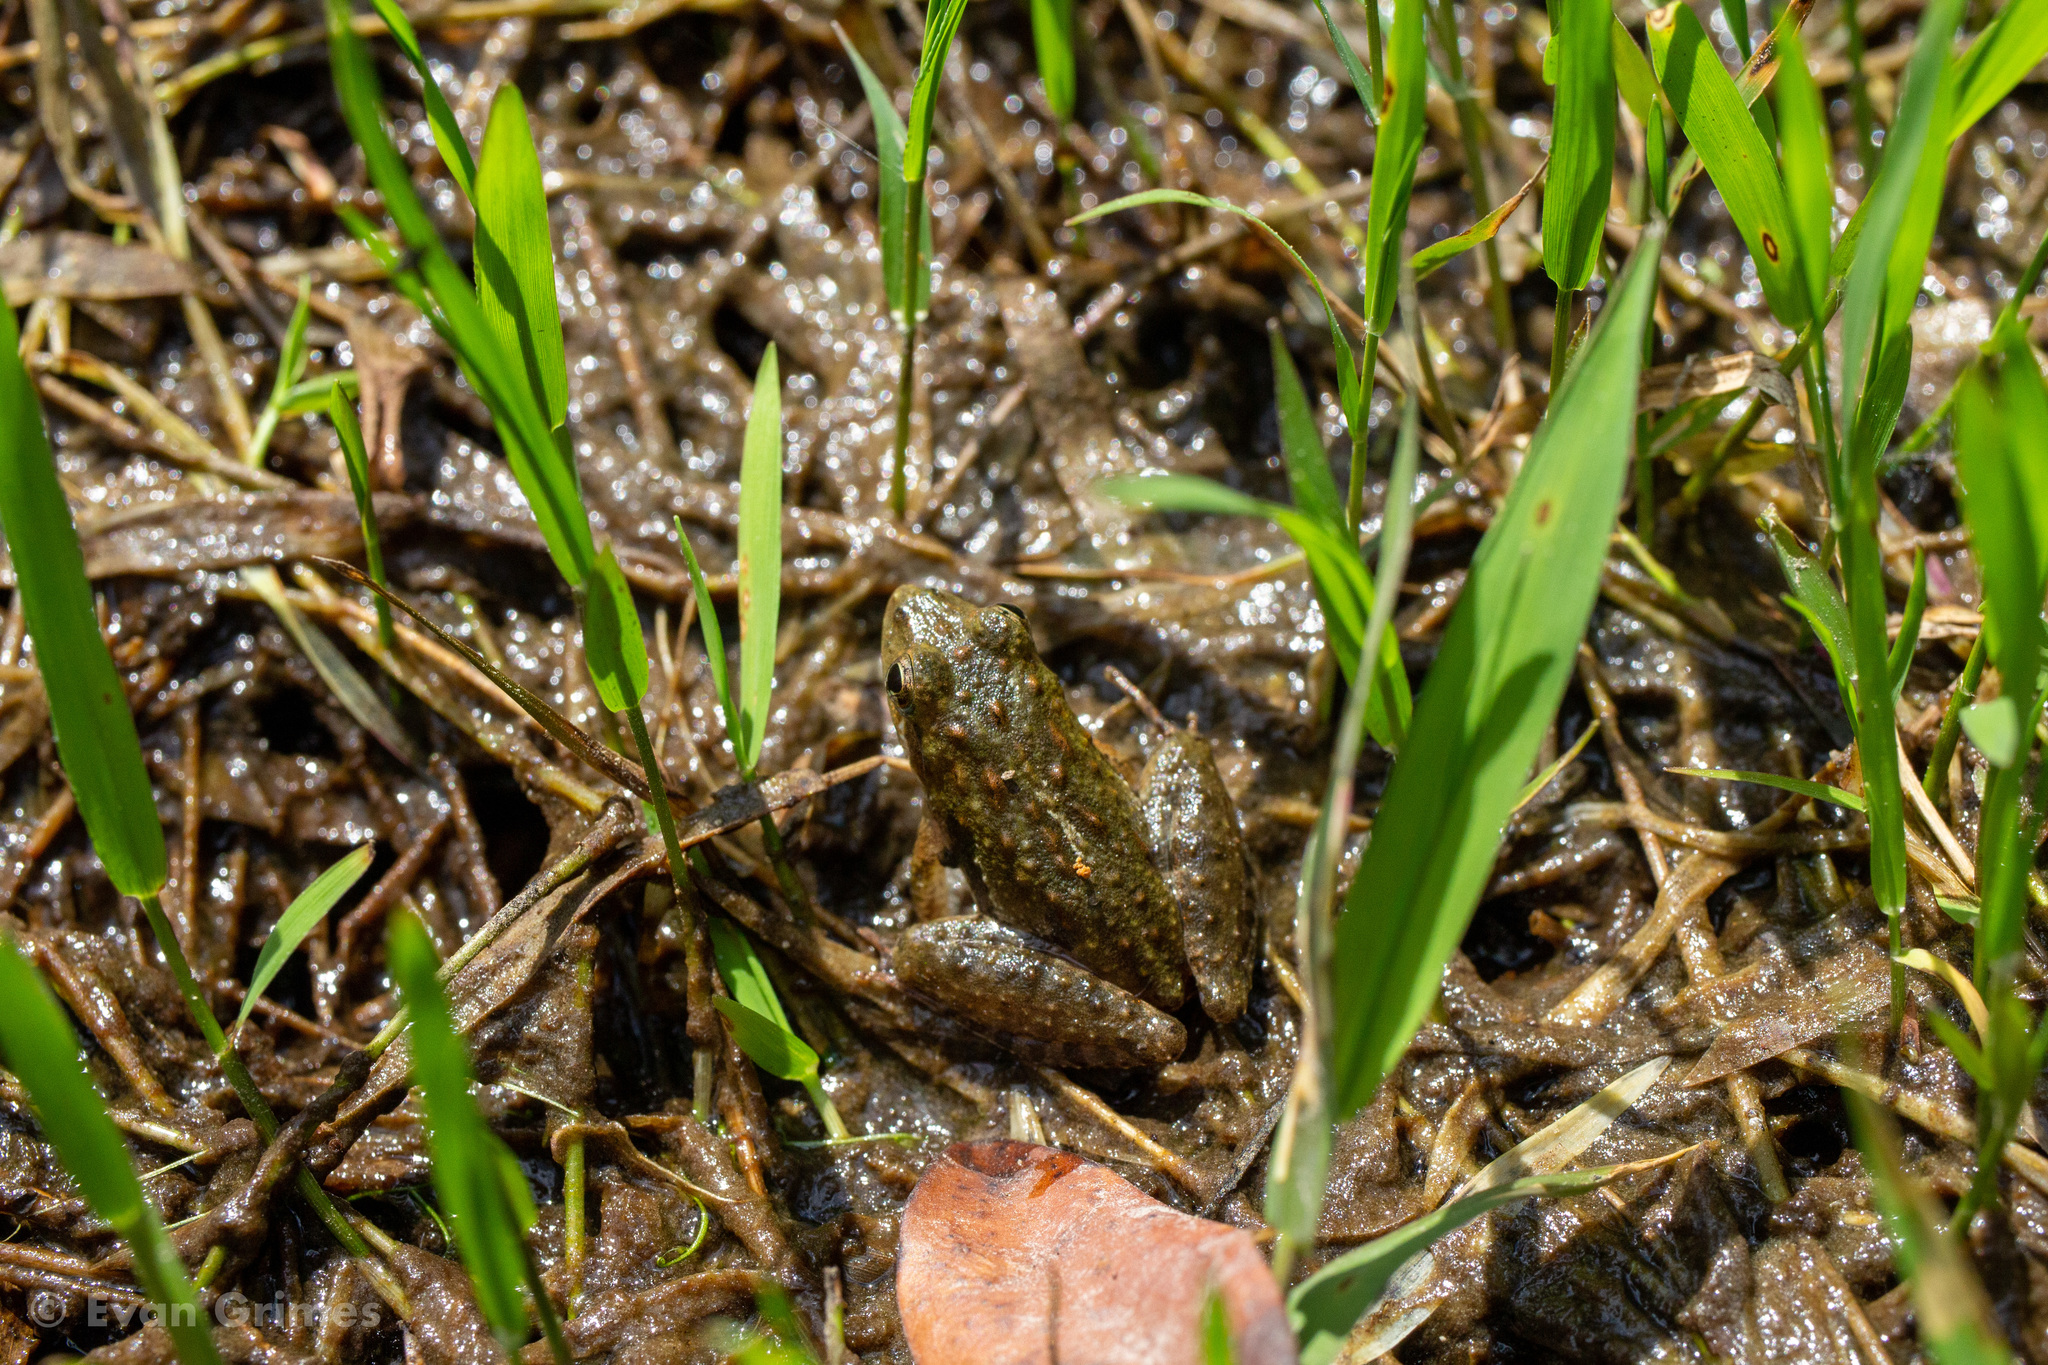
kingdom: Animalia
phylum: Chordata
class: Amphibia
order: Anura
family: Hylidae
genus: Acris
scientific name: Acris gryllus
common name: Southern cricket frog
